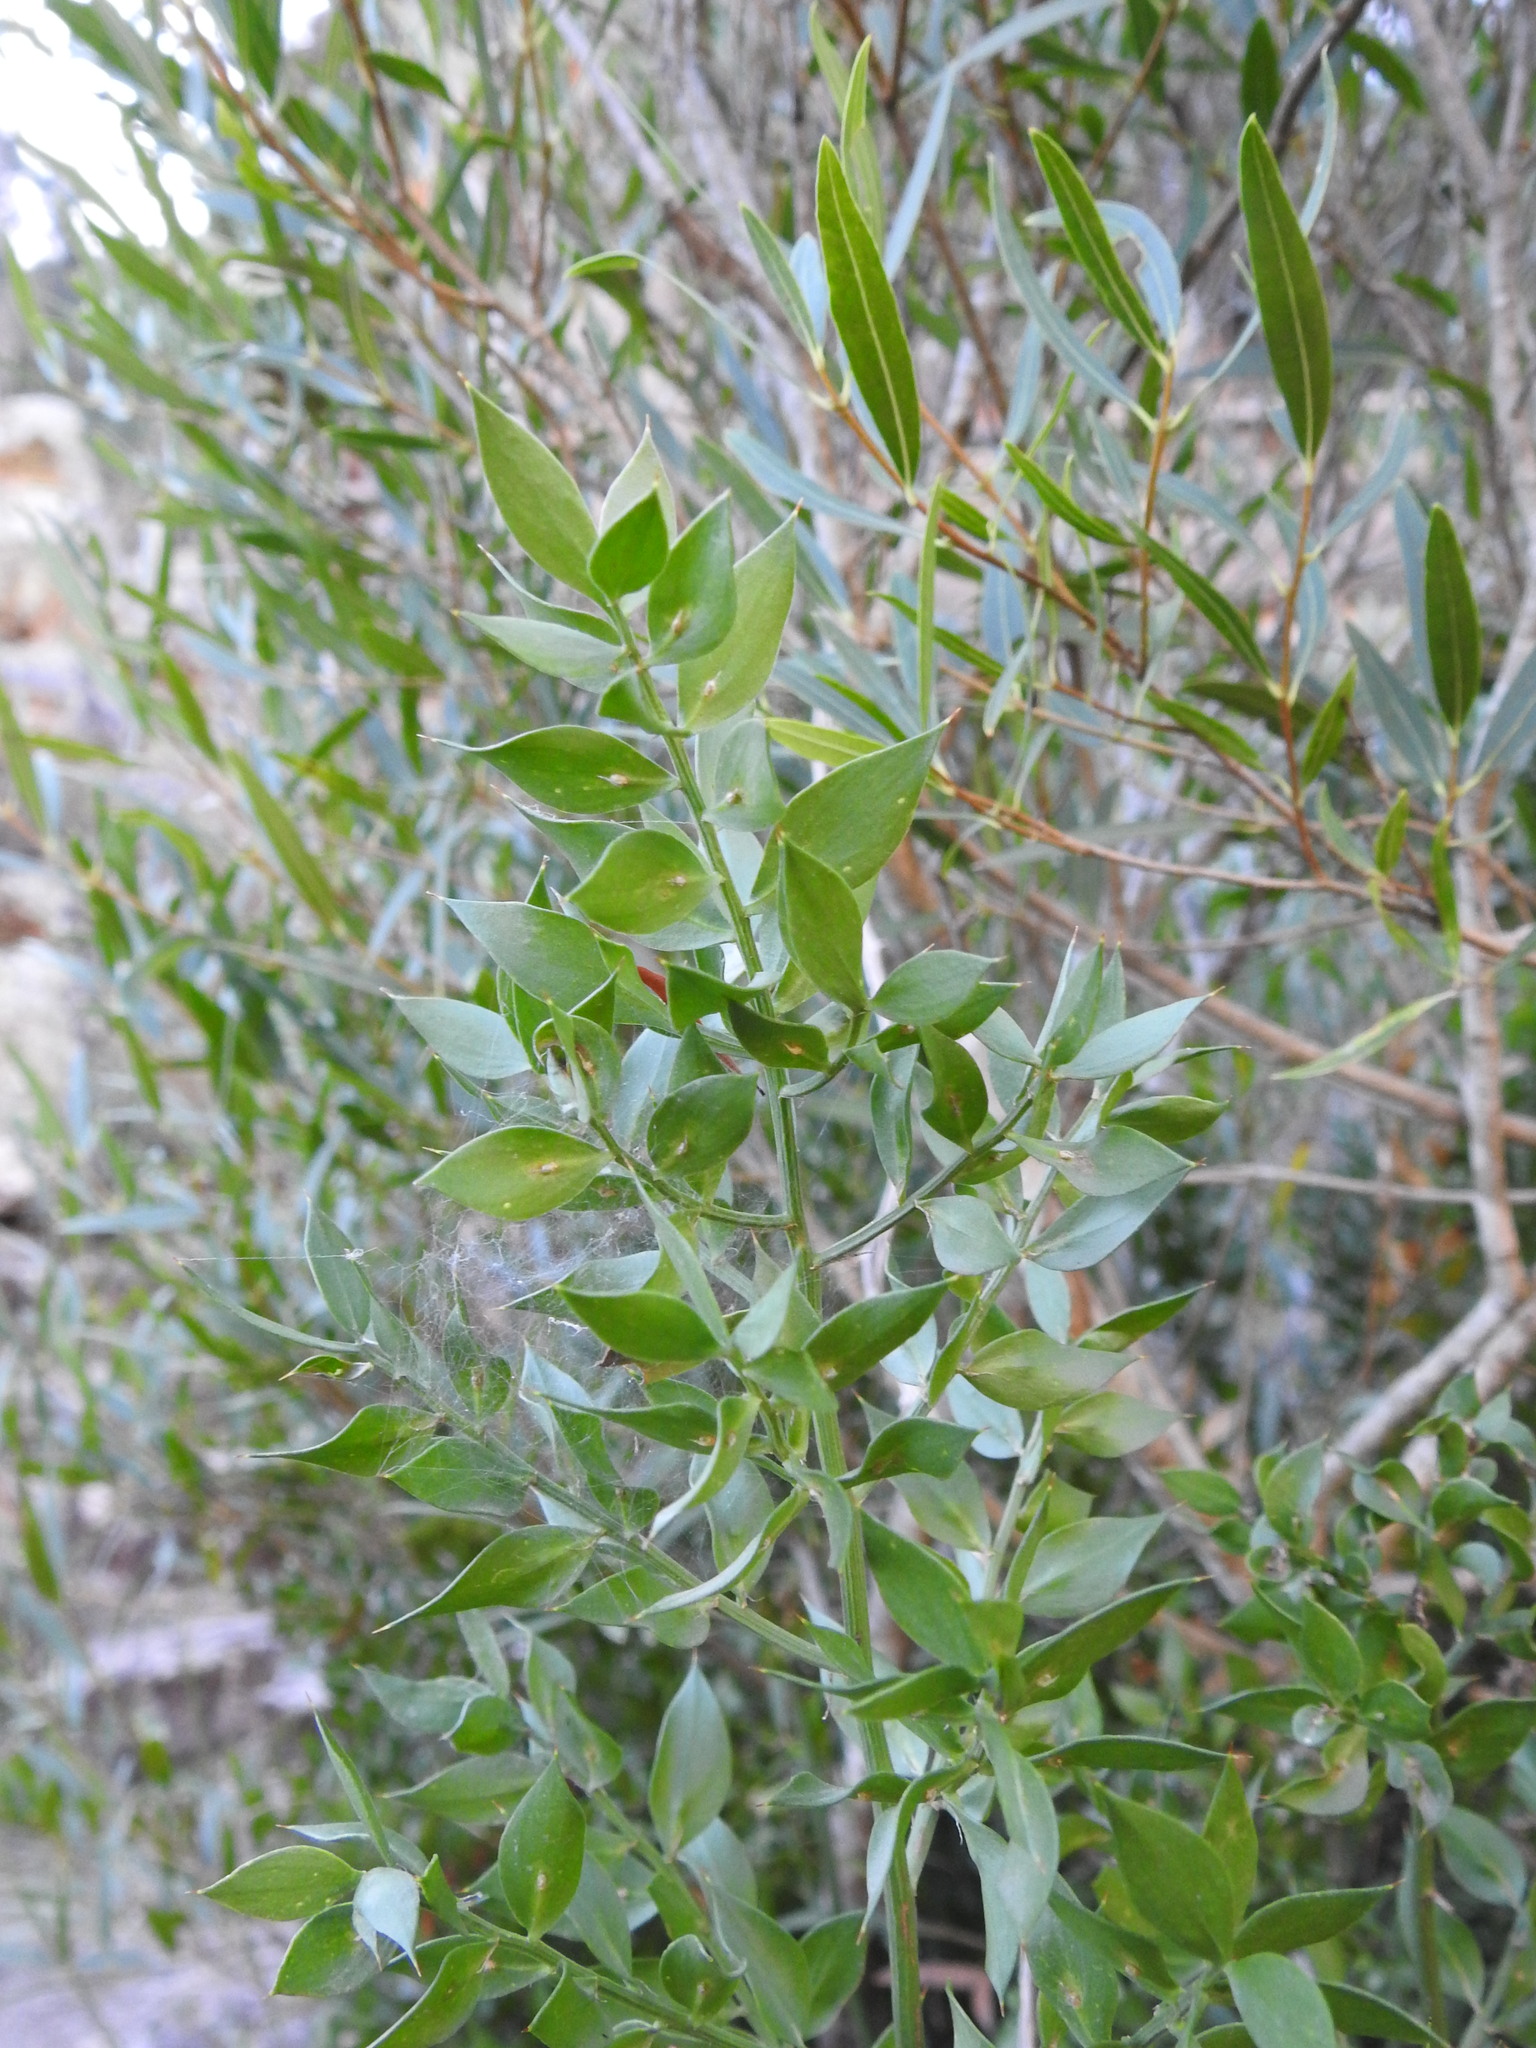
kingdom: Plantae
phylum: Tracheophyta
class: Liliopsida
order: Asparagales
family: Asparagaceae
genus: Ruscus
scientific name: Ruscus aculeatus
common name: Butcher's-broom
